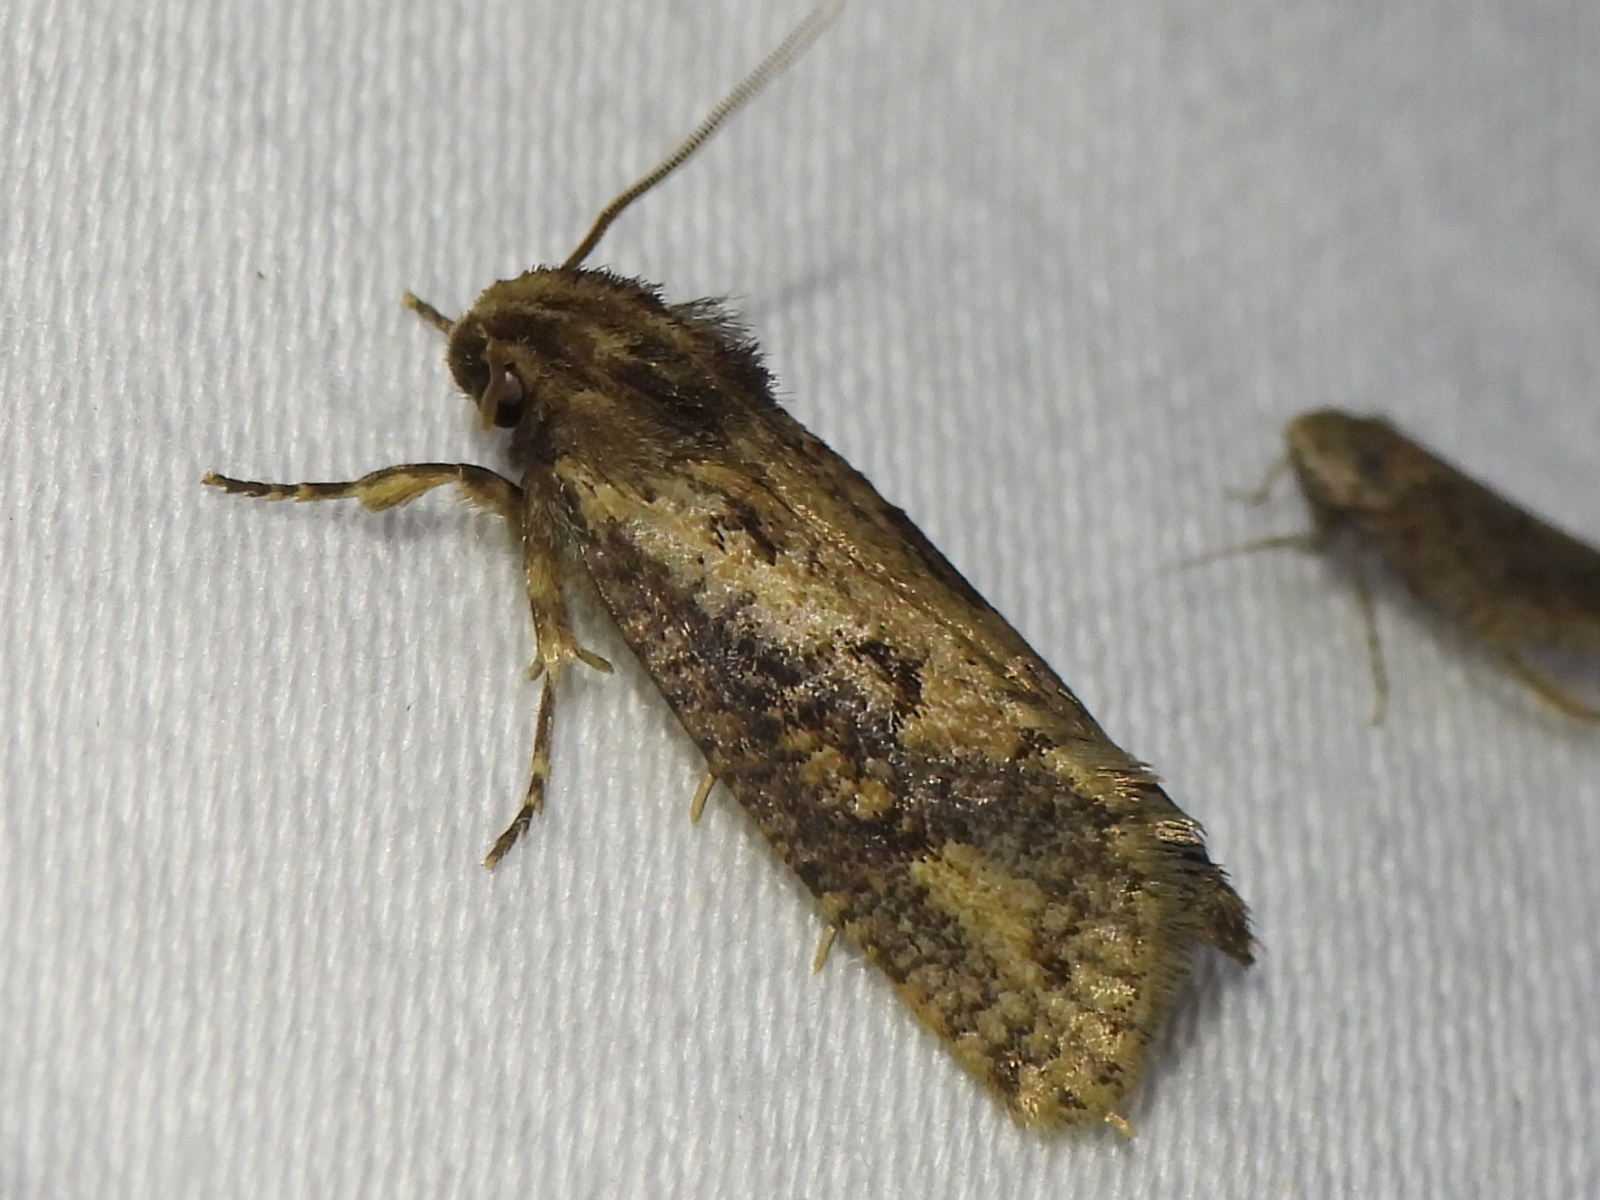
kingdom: Animalia
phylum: Arthropoda
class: Insecta
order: Lepidoptera
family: Tineidae
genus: Acrolophus
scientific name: Acrolophus popeanella
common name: Clemens' grass tubeworm moth
